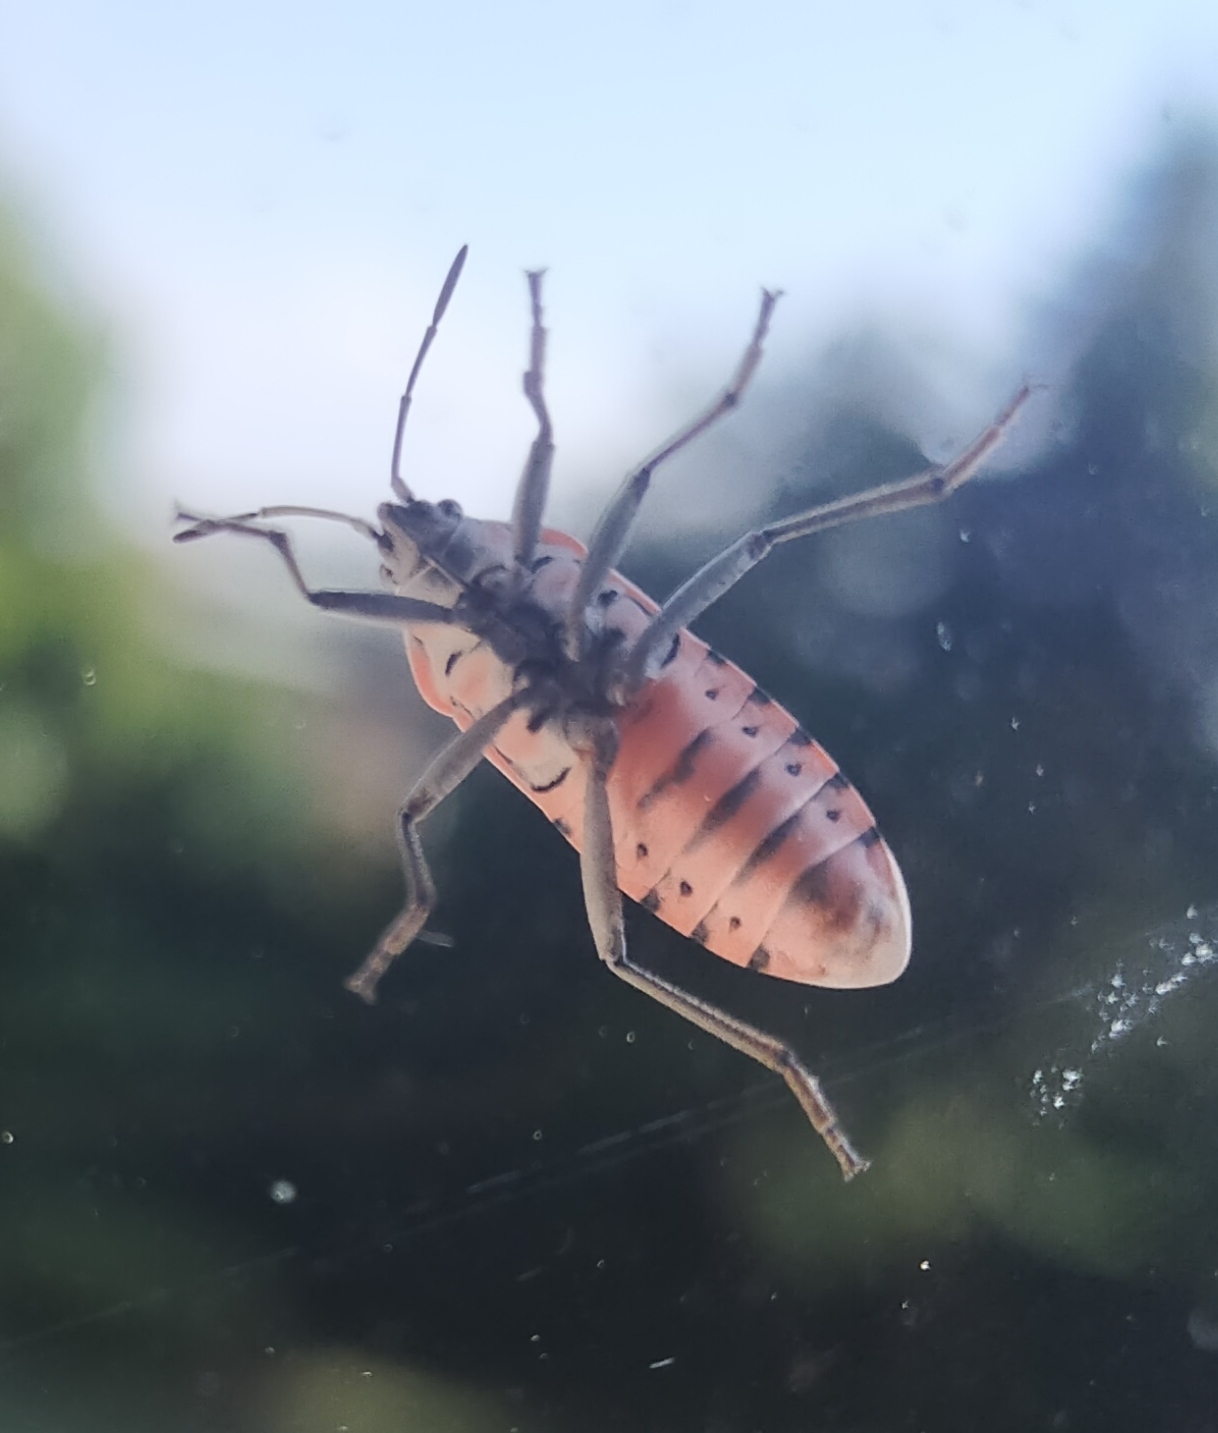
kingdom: Animalia
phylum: Arthropoda
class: Insecta
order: Hemiptera
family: Lygaeidae
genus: Spilostethus
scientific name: Spilostethus pandurus
